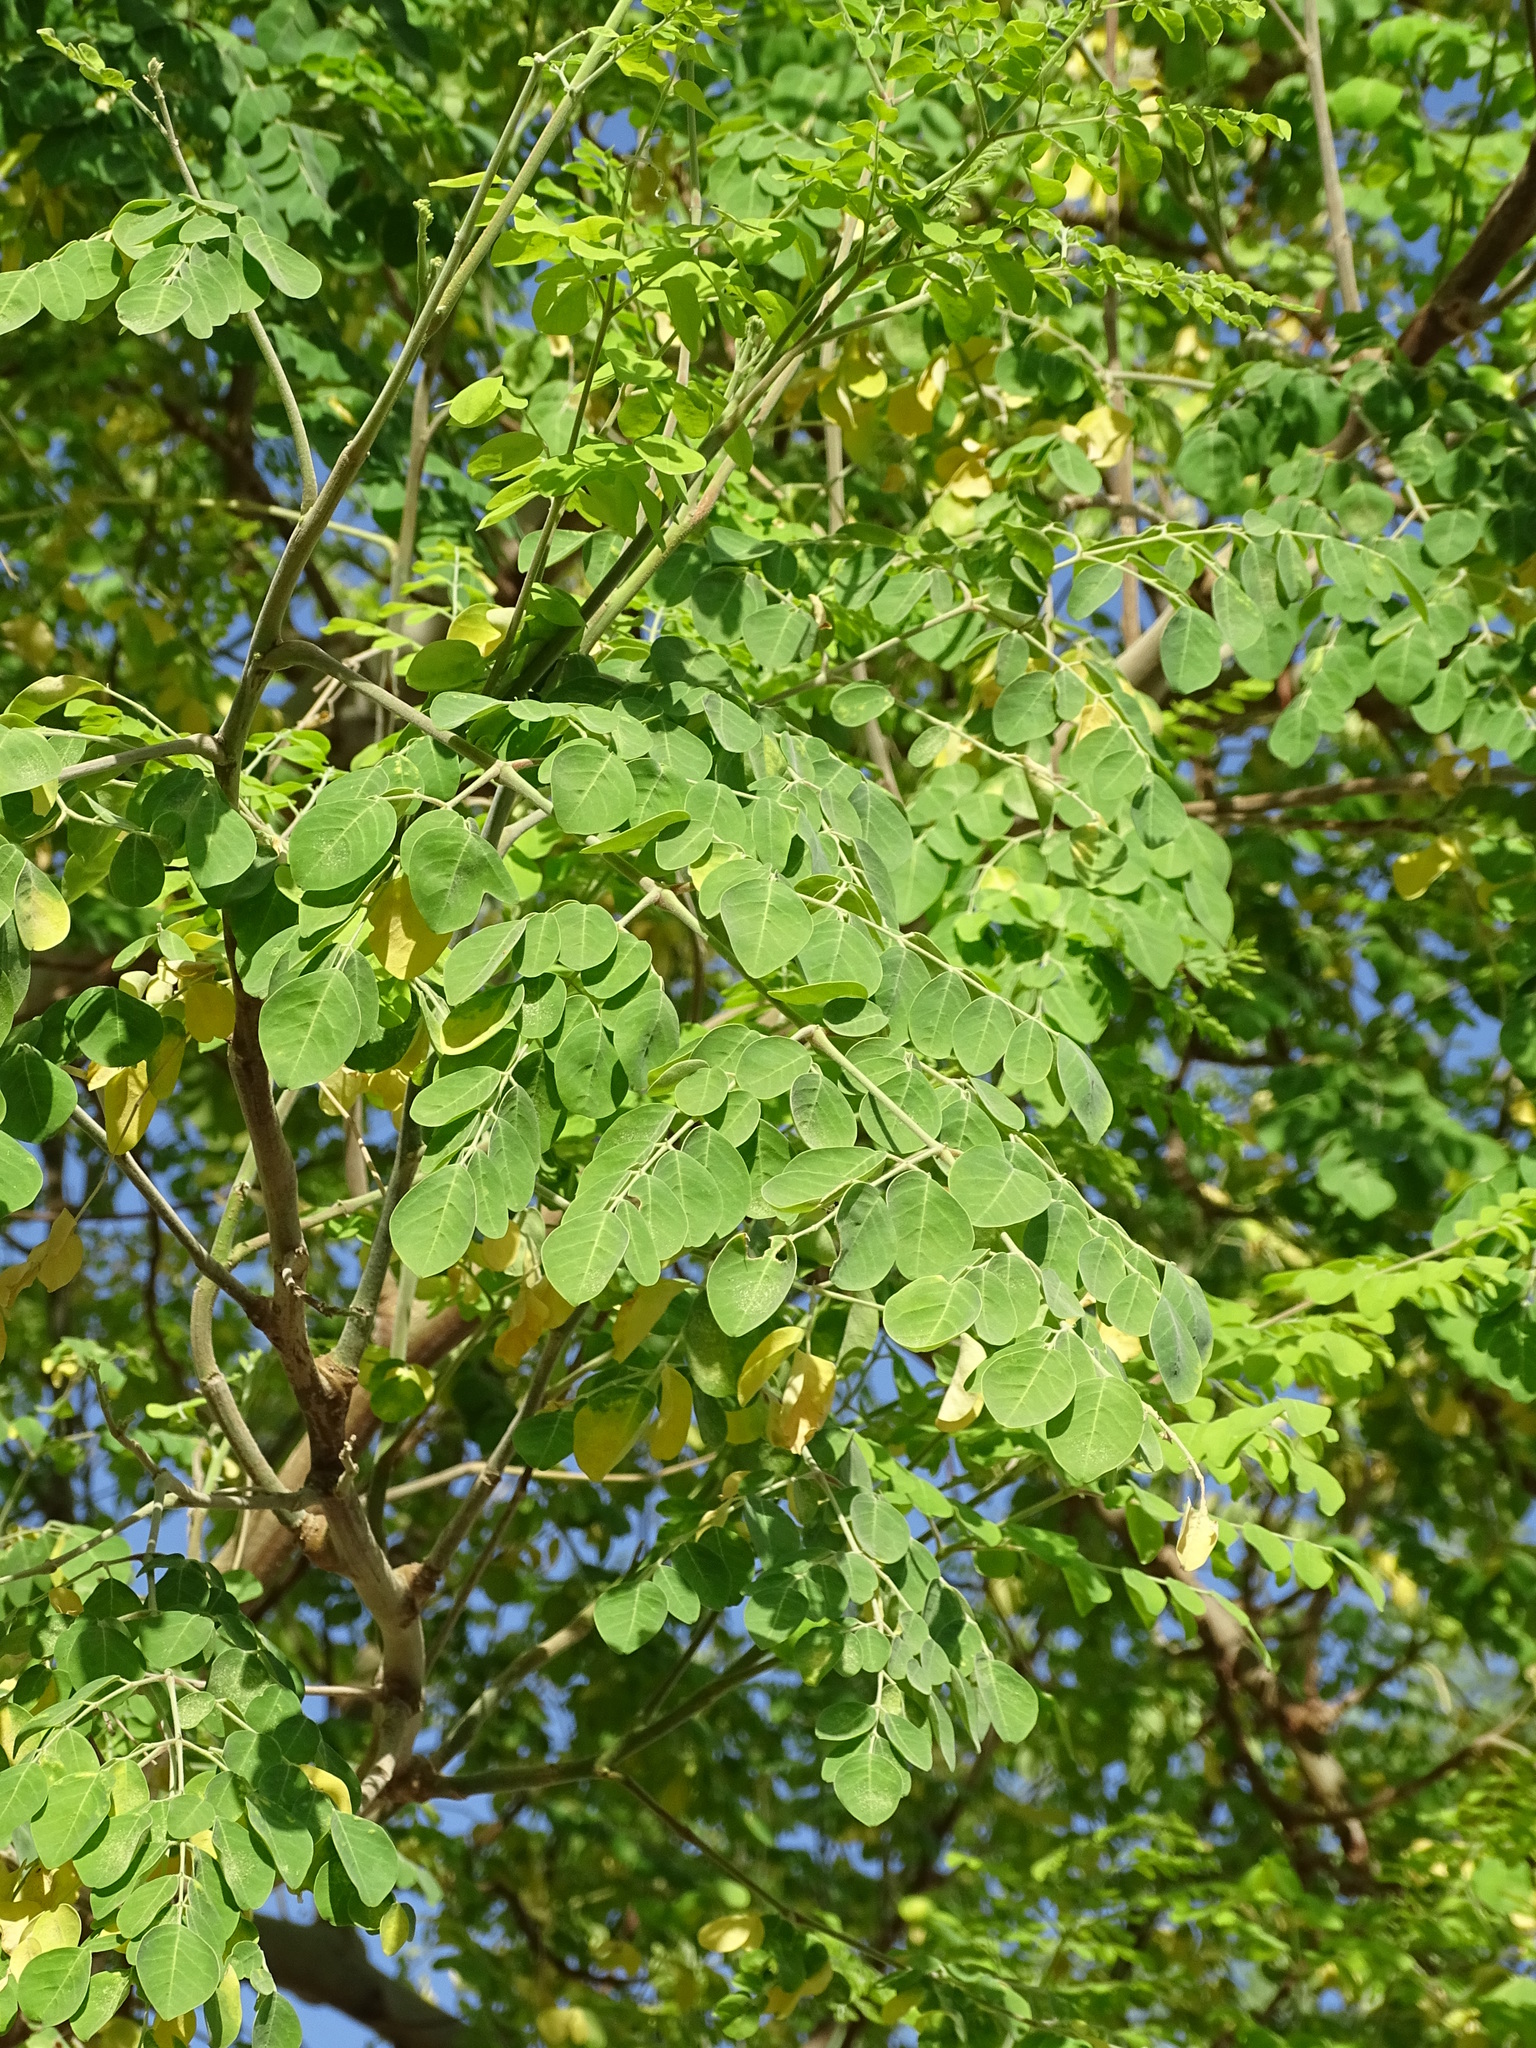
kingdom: Plantae
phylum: Tracheophyta
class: Magnoliopsida
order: Brassicales
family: Moringaceae
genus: Moringa
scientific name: Moringa oleifera
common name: Horseradish-tree
